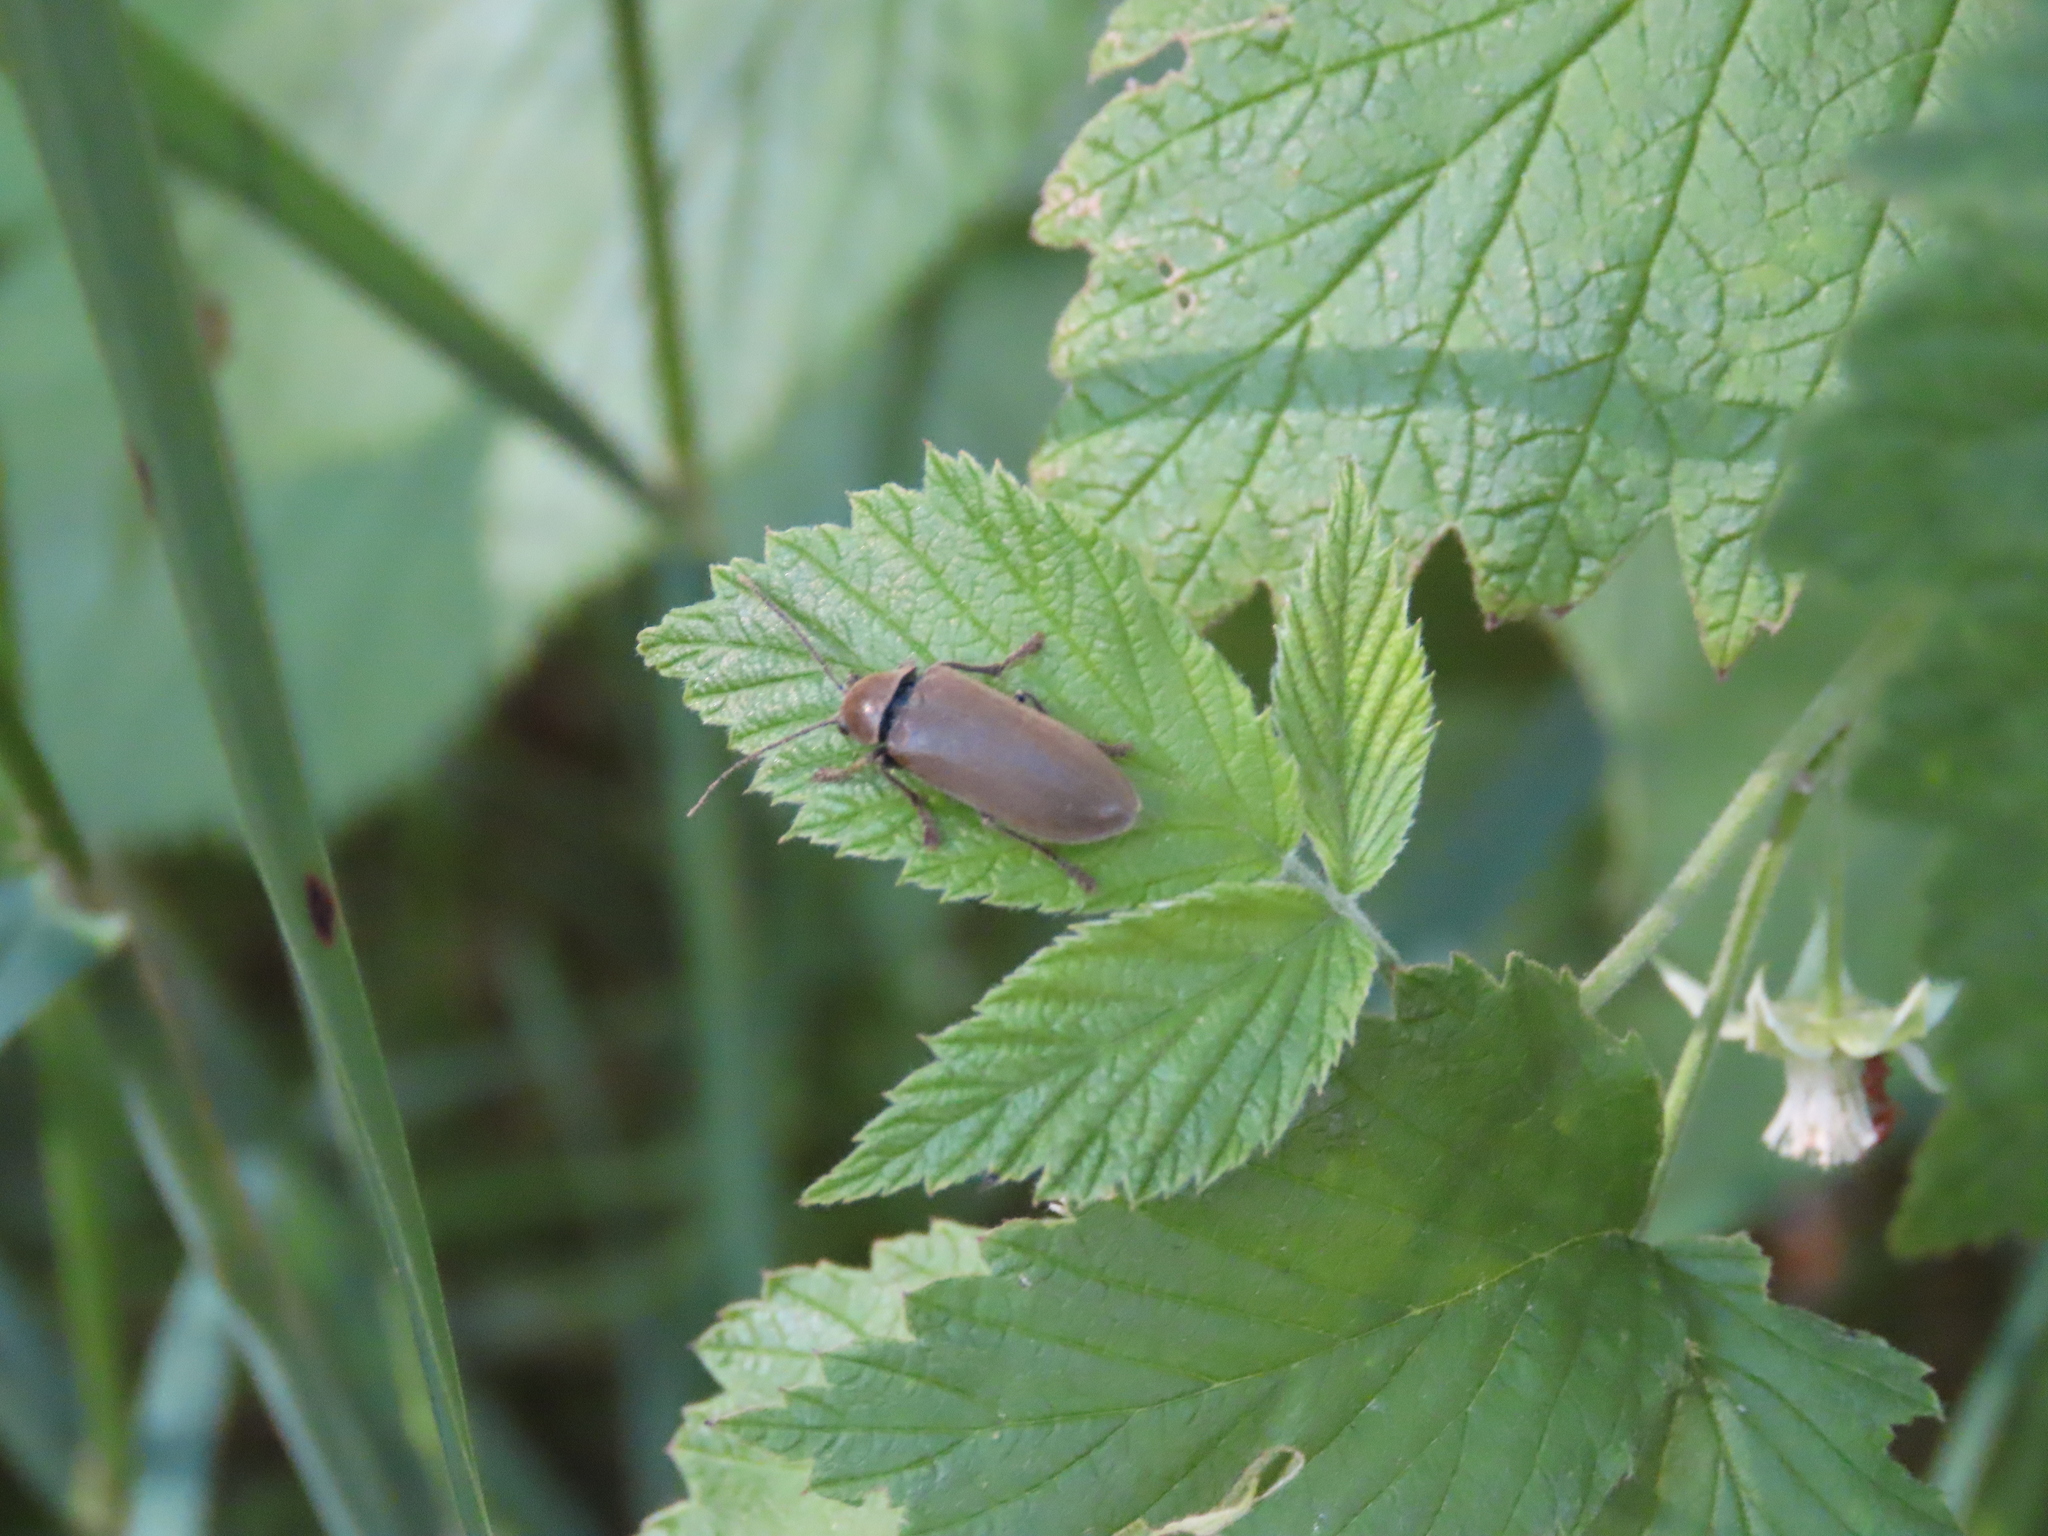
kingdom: Animalia
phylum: Arthropoda
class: Insecta
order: Coleoptera
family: Dascillidae
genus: Dascillus
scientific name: Dascillus cervinus
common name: Orchid beetle
